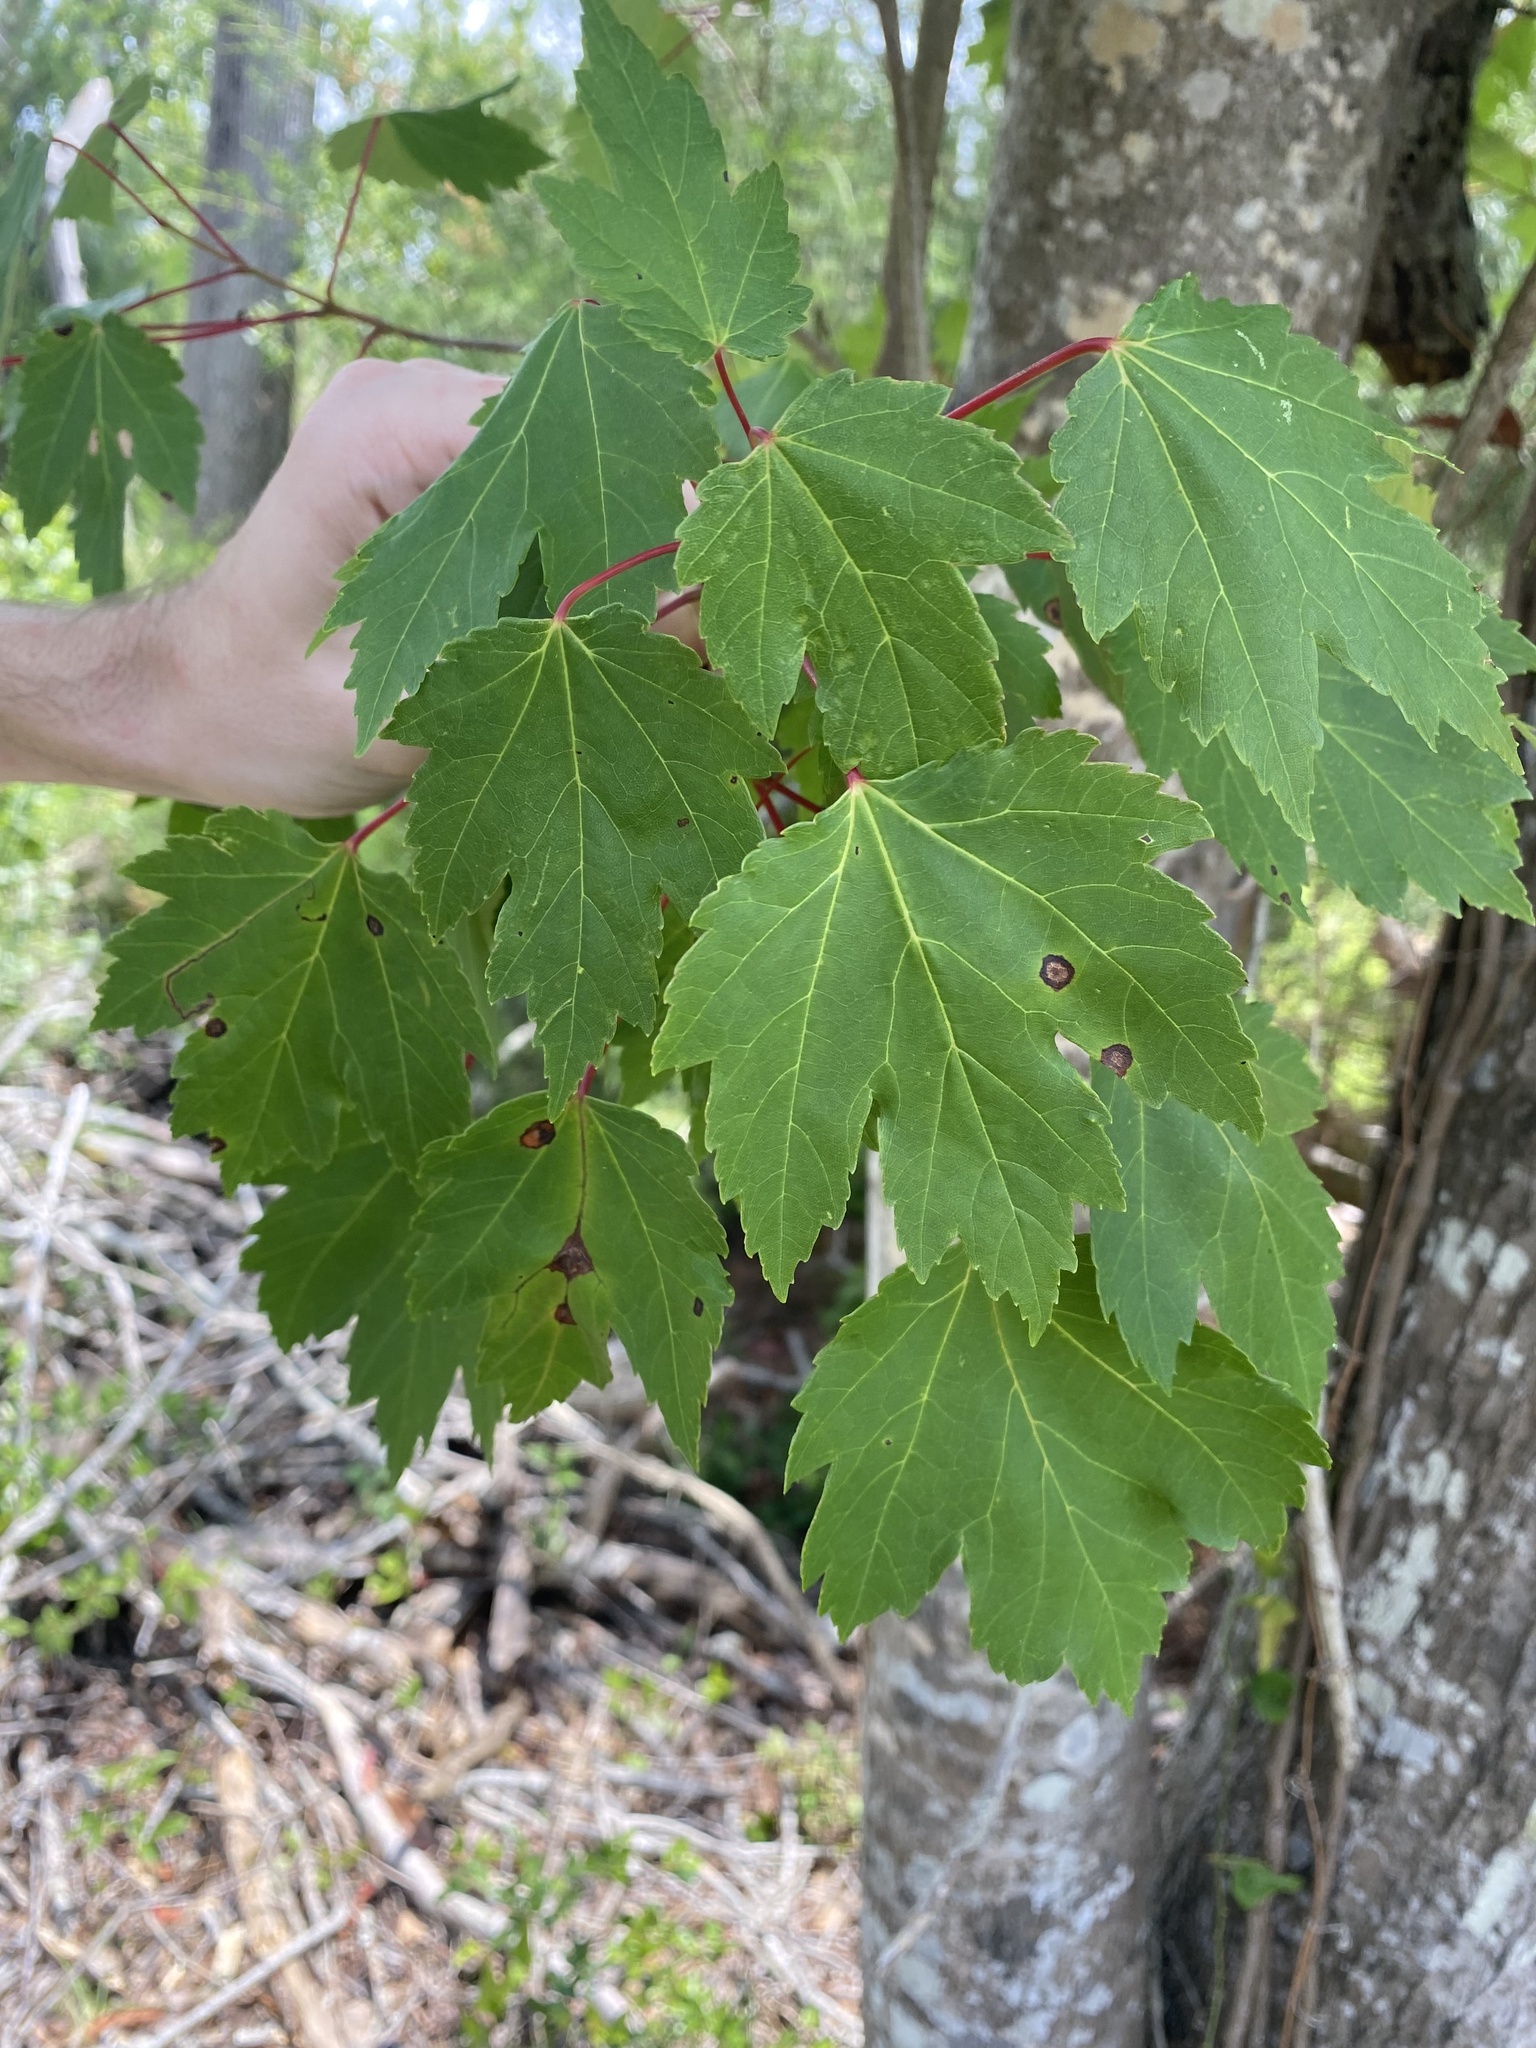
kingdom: Plantae
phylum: Tracheophyta
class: Magnoliopsida
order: Sapindales
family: Sapindaceae
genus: Acer
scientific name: Acer rubrum
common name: Red maple
